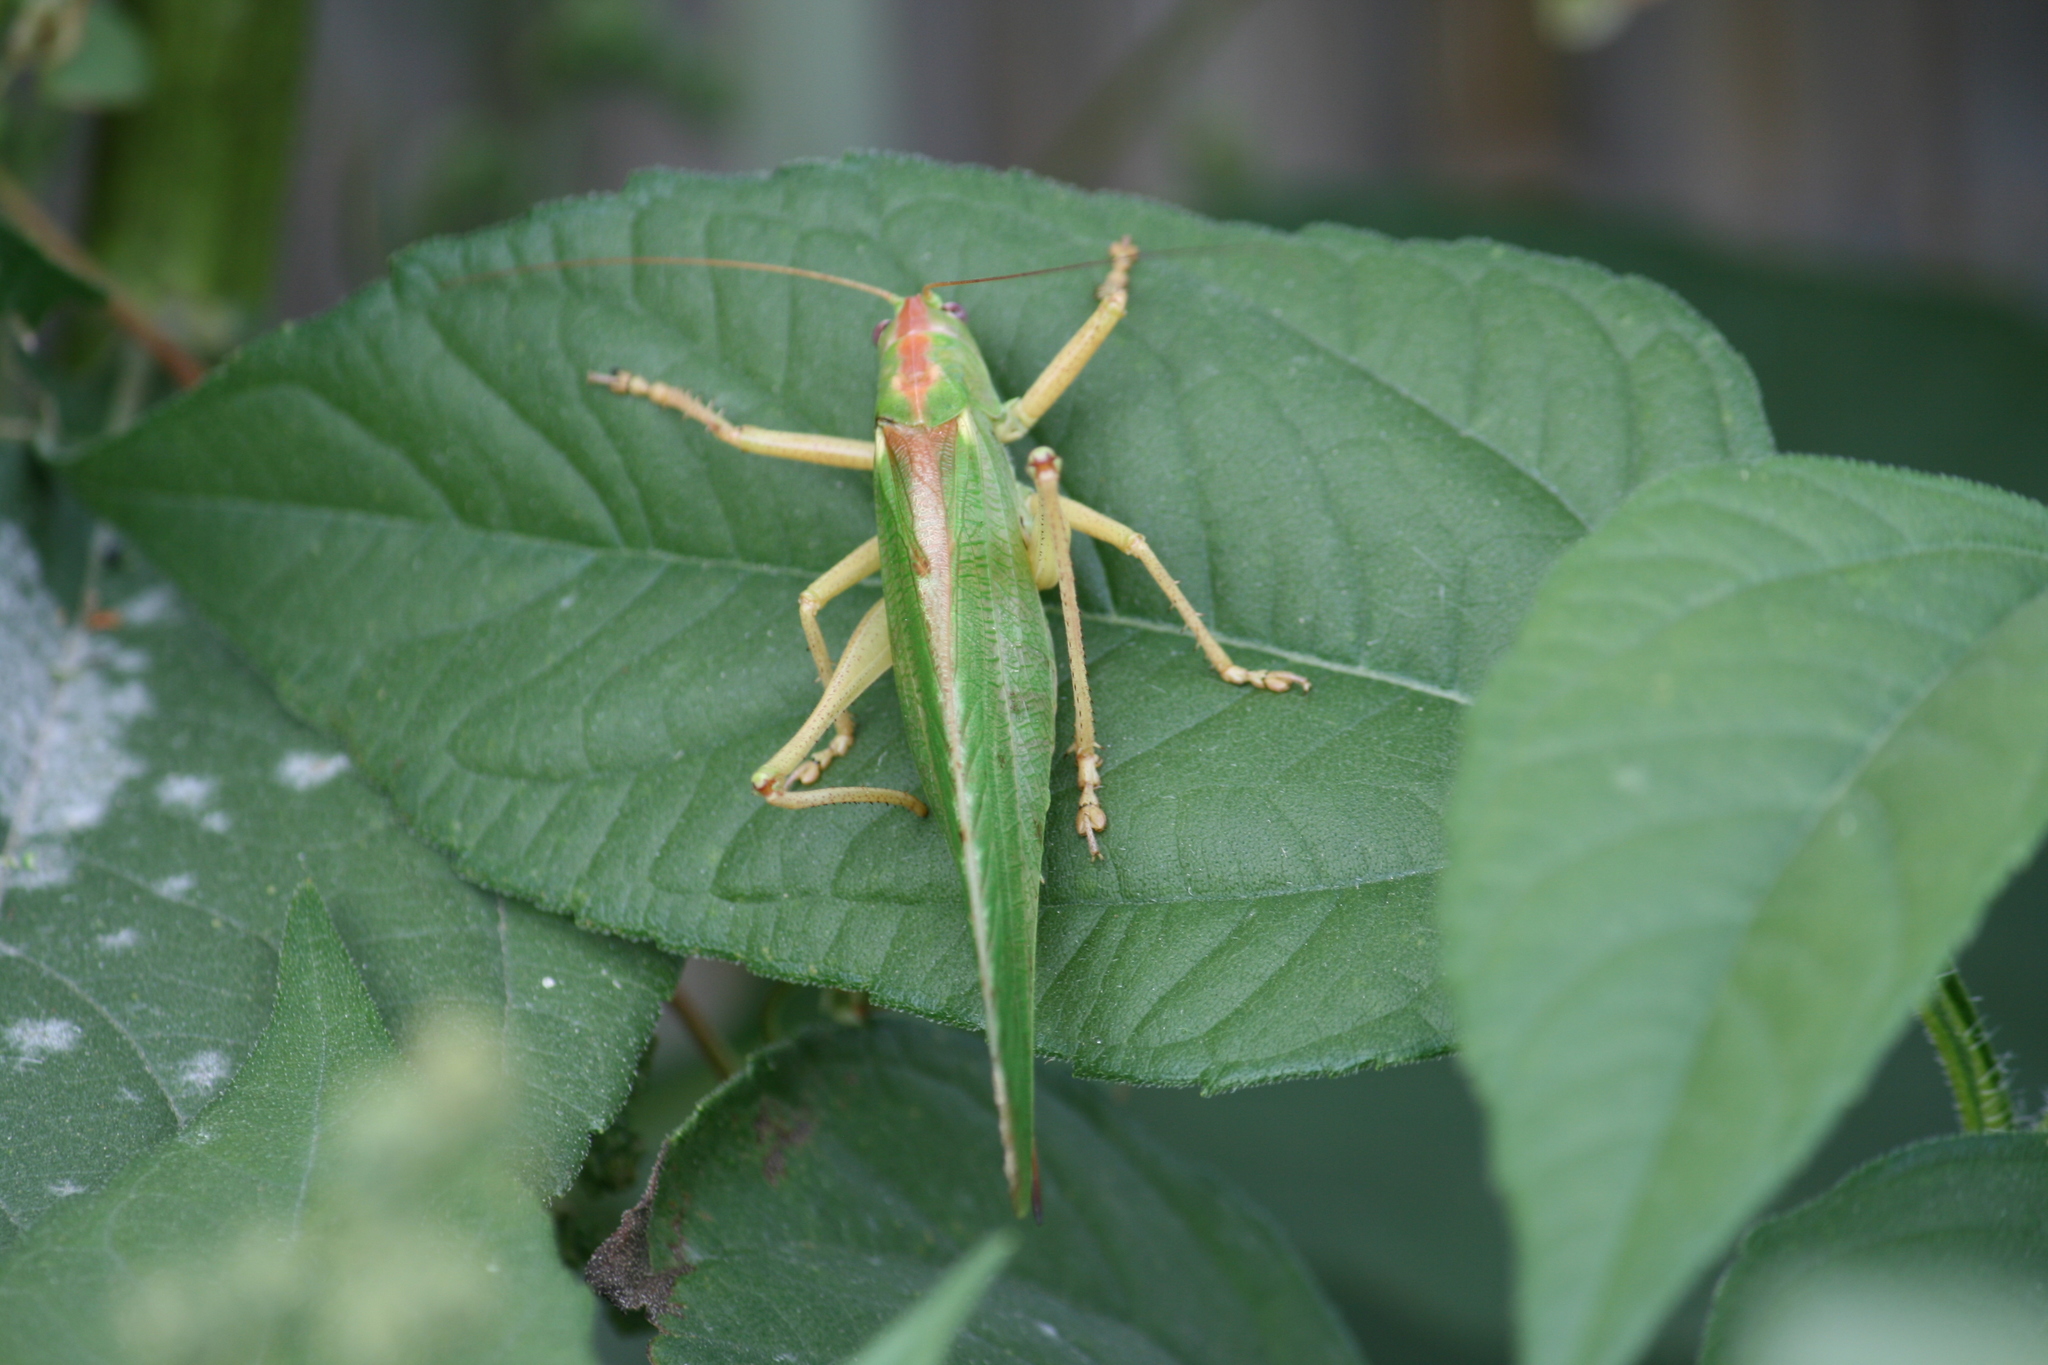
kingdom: Animalia
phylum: Arthropoda
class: Insecta
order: Orthoptera
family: Tettigoniidae
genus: Tettigonia
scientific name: Tettigonia viridissima
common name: Great green bush-cricket
